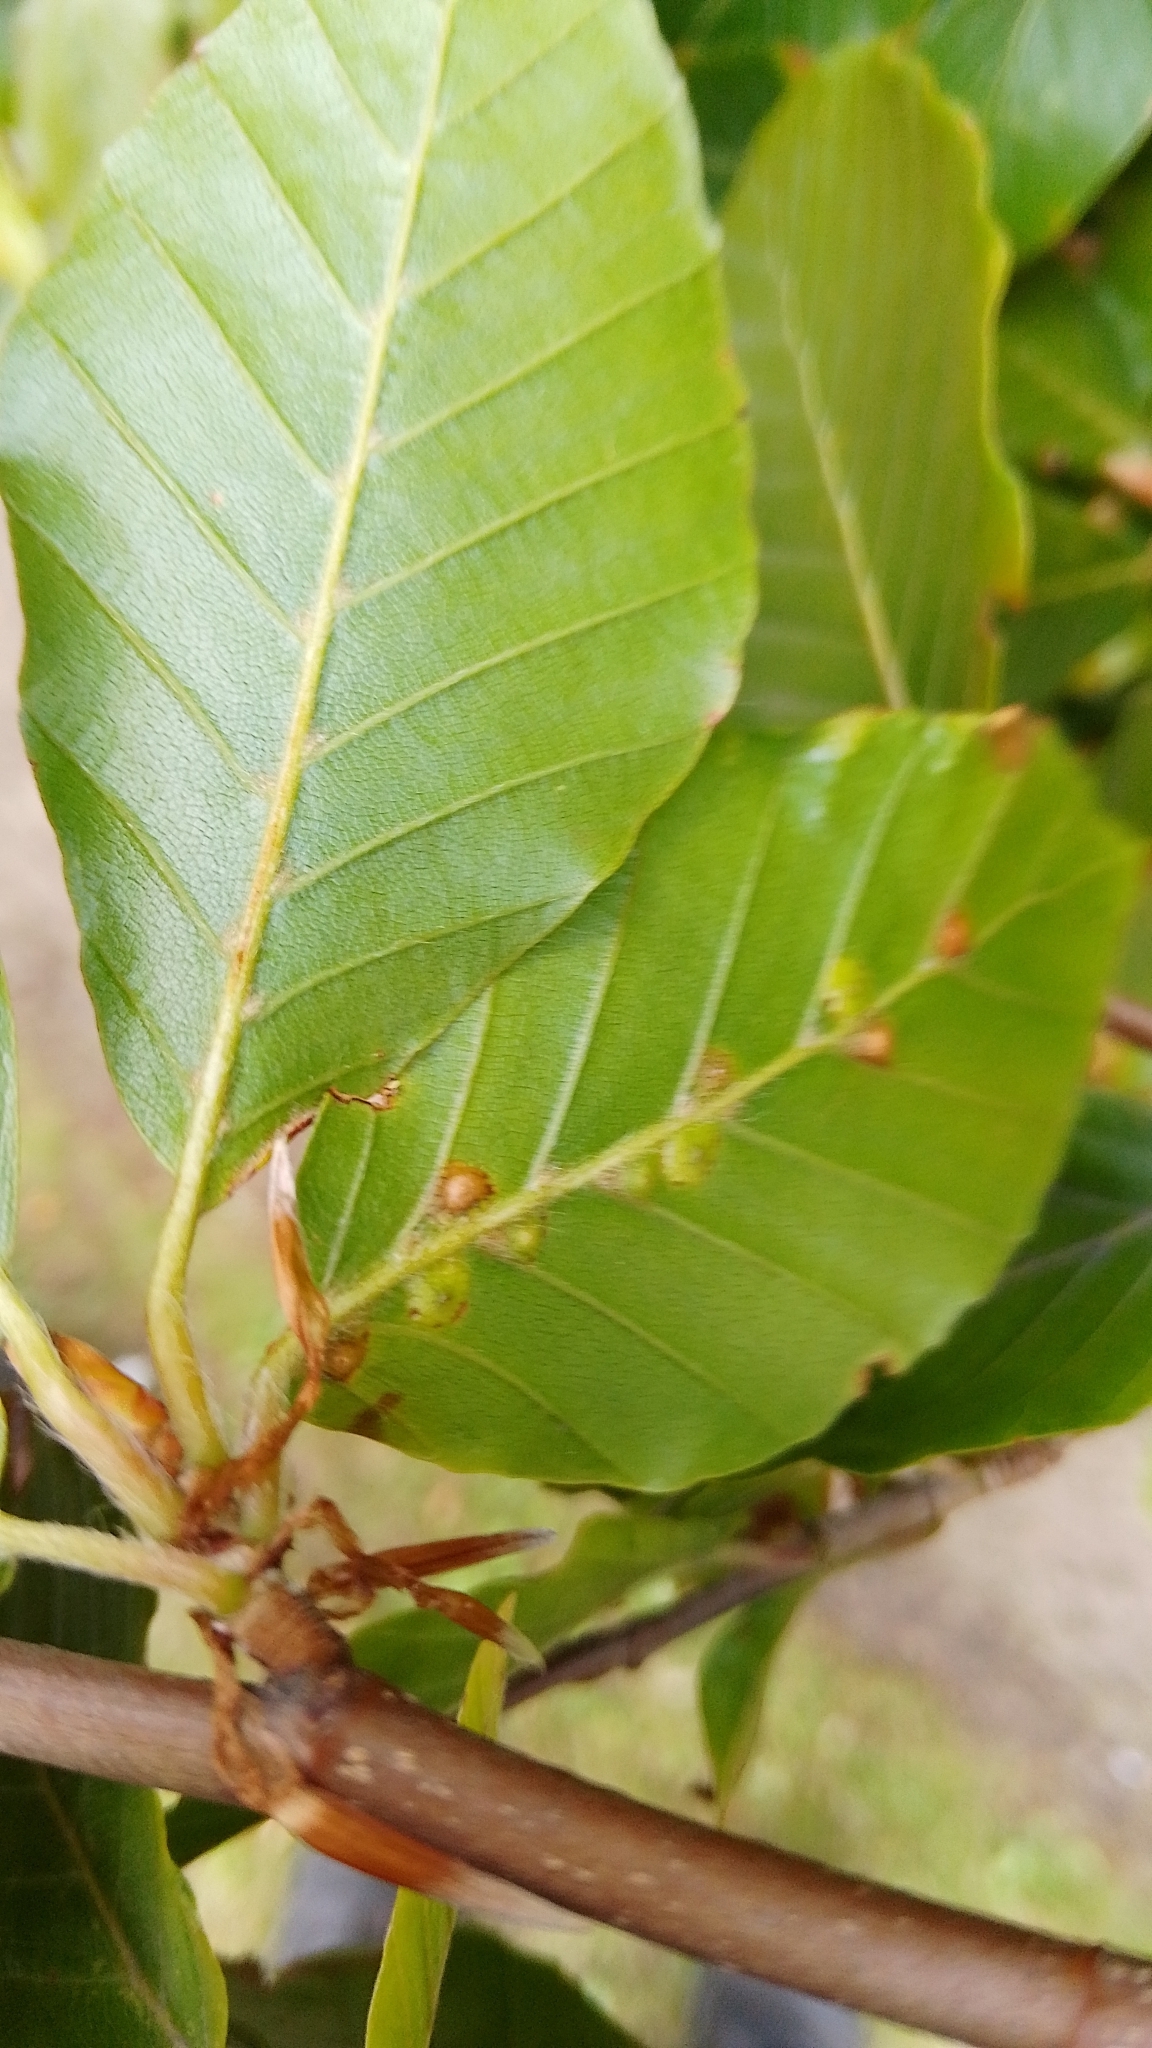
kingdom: Animalia
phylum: Arthropoda
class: Insecta
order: Diptera
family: Cecidomyiidae
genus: Hartigiola
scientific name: Hartigiola annulipes
